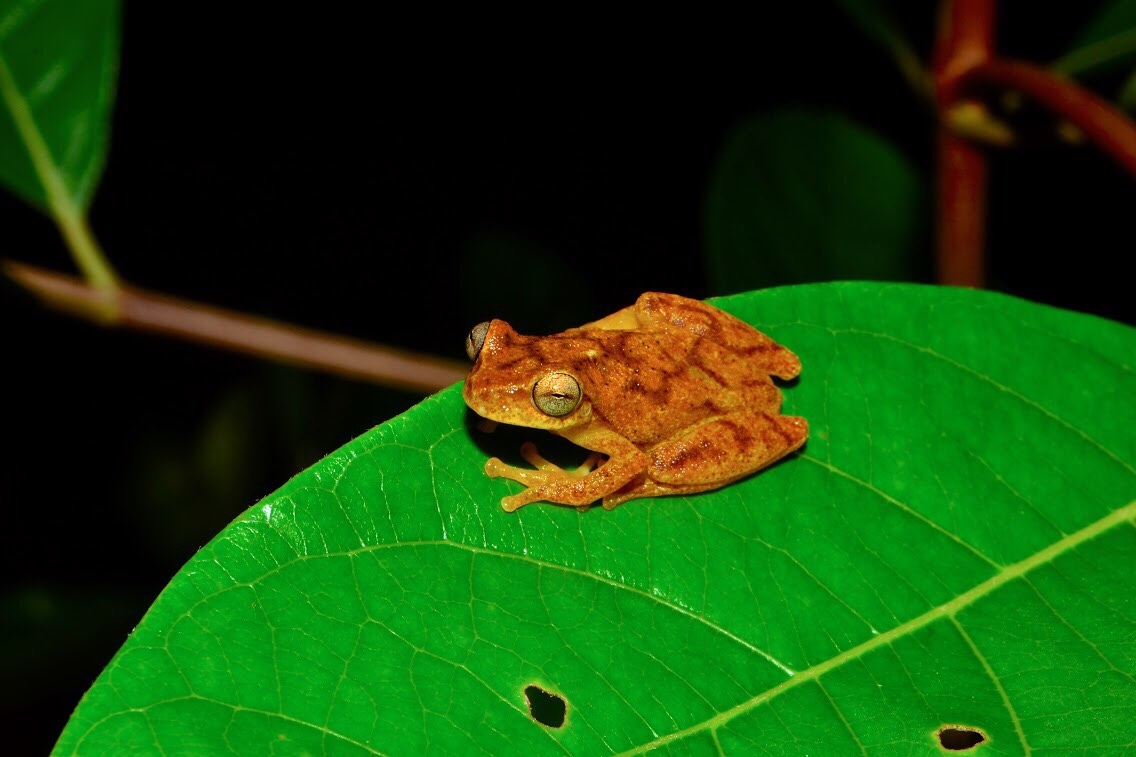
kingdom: Animalia
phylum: Chordata
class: Amphibia
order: Anura
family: Hylidae
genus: Dendropsophus
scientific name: Dendropsophus microcephalus
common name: Small-headed treefrog
